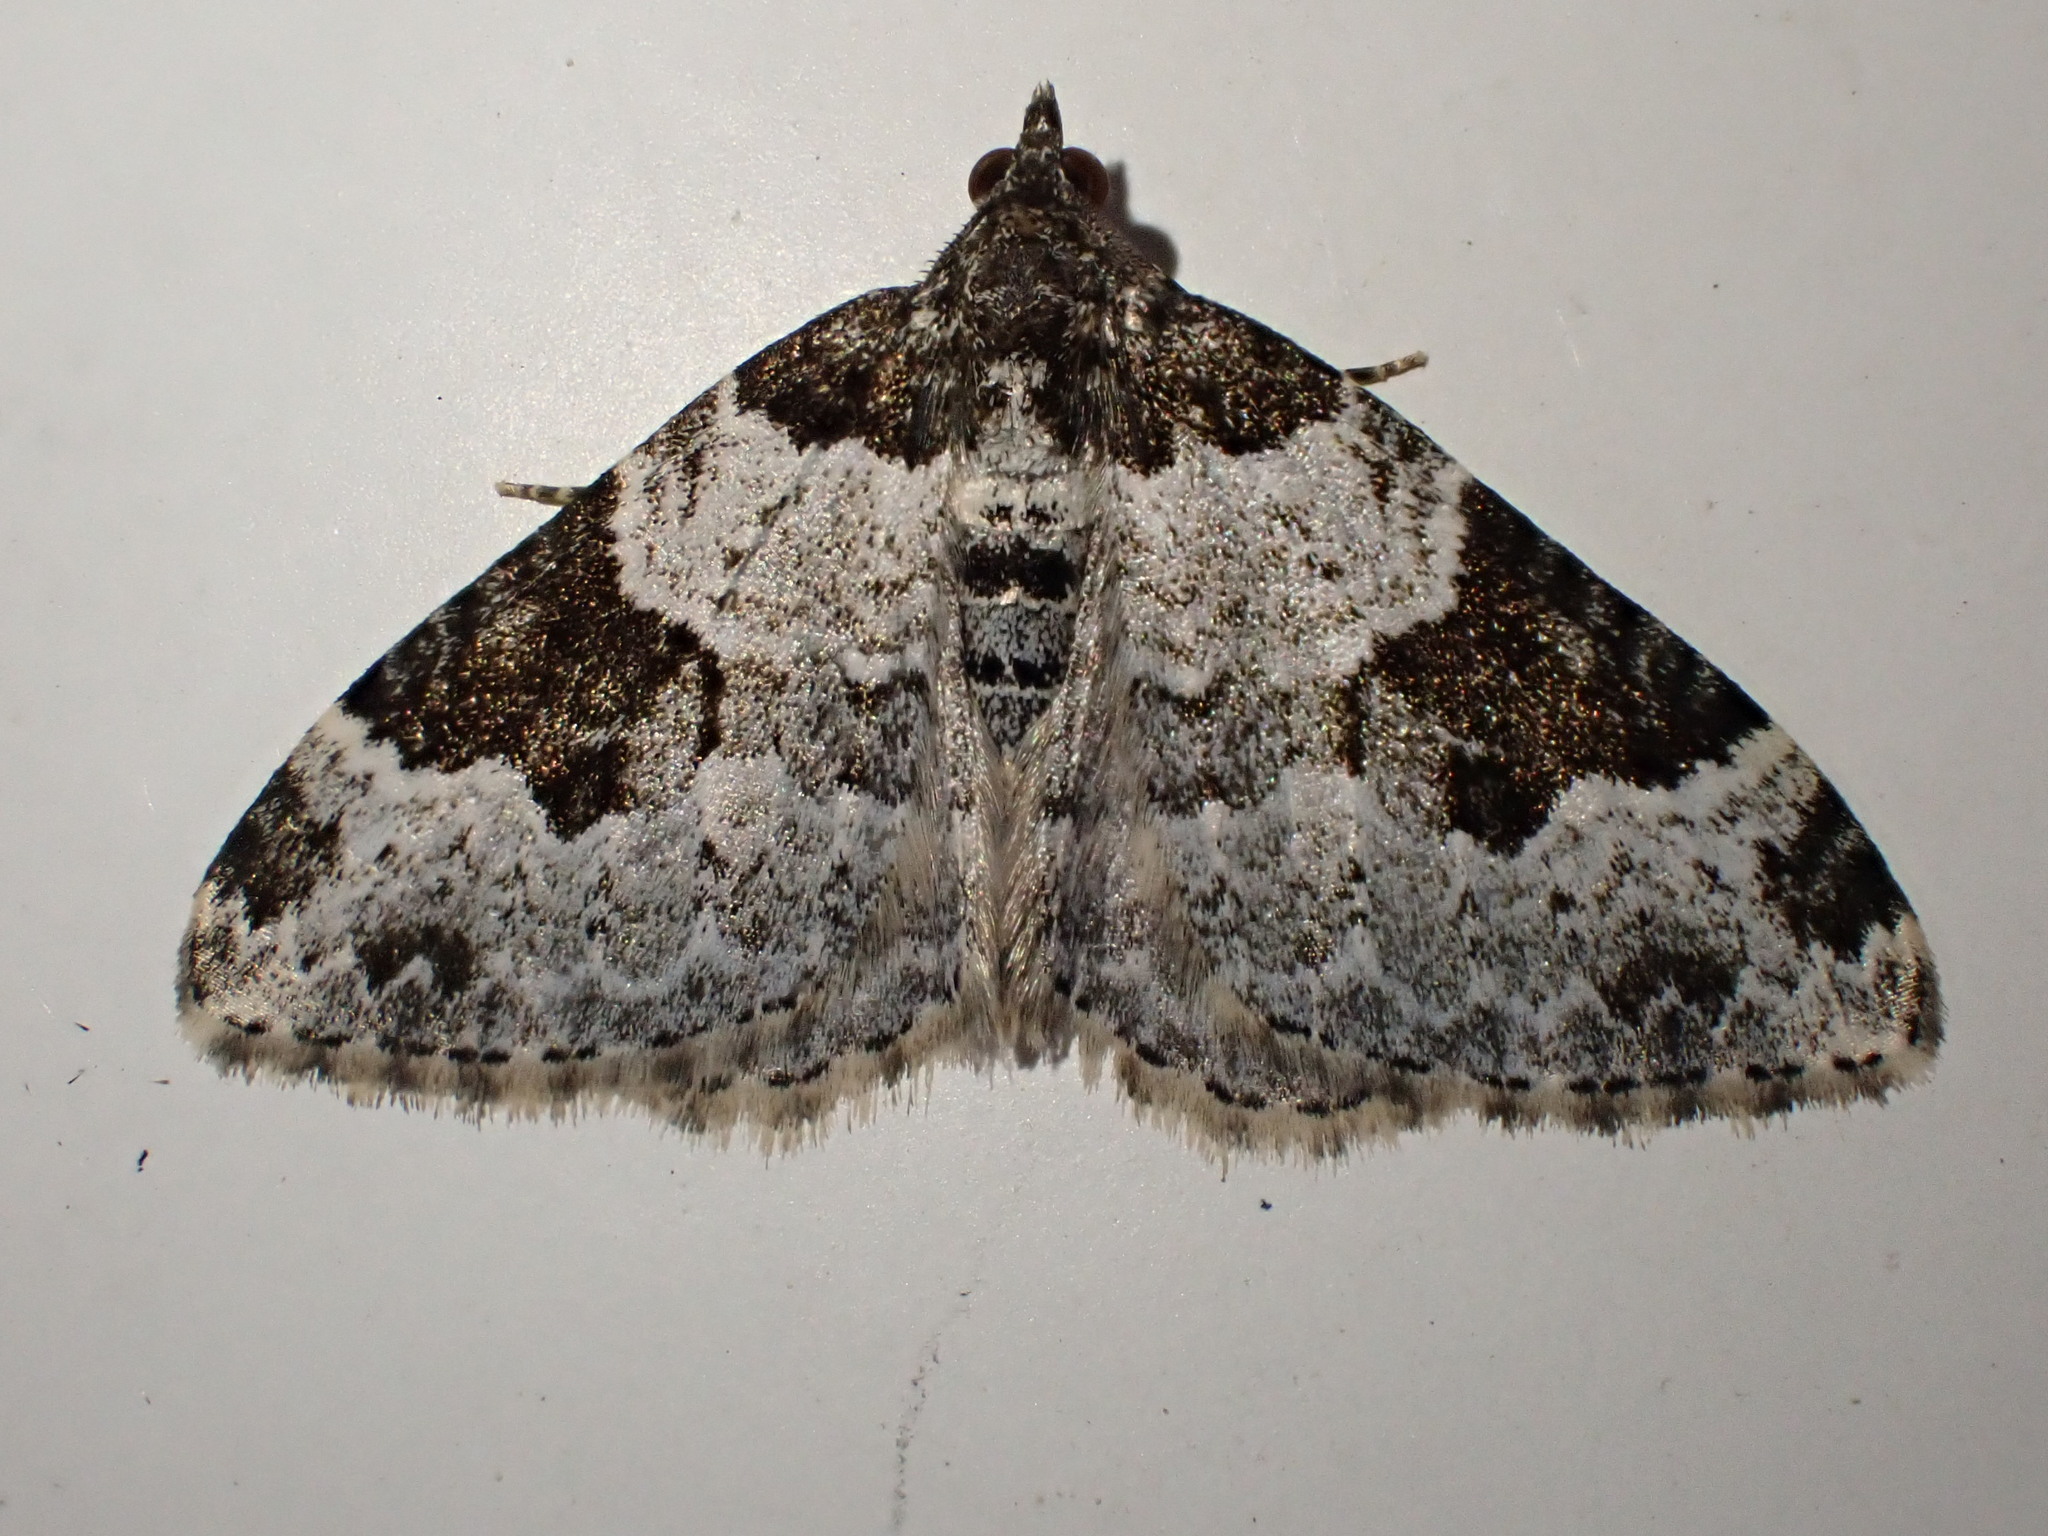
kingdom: Animalia
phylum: Arthropoda
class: Insecta
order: Lepidoptera
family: Geometridae
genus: Xanthorhoe
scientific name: Xanthorhoe fluctuata
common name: Garden carpet
